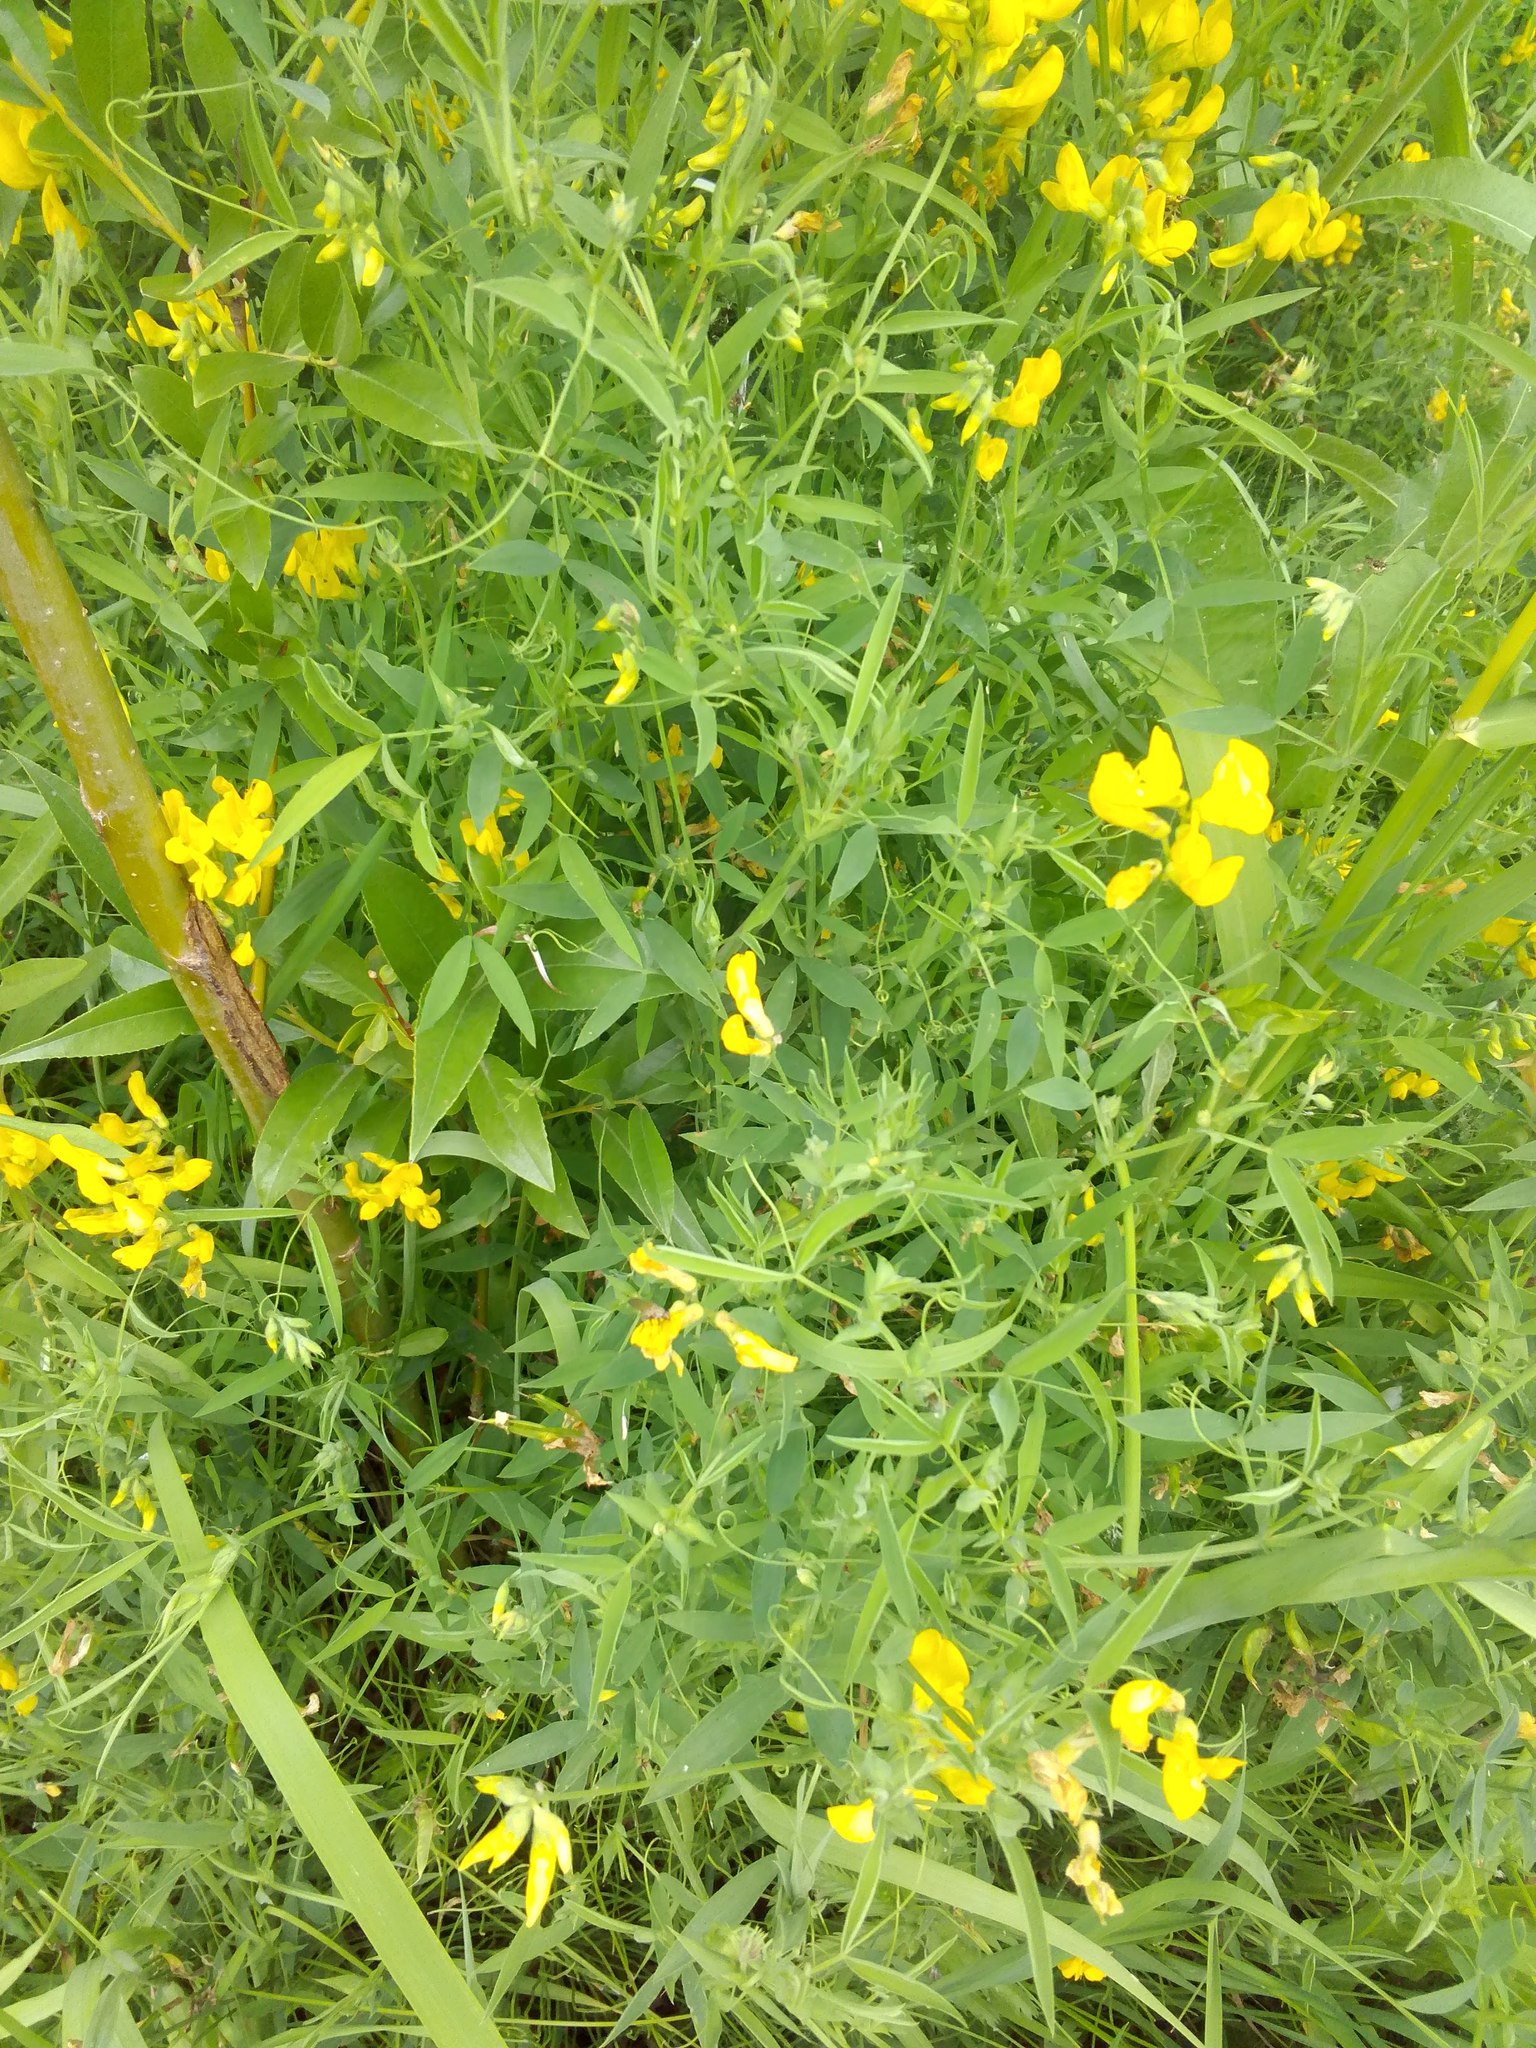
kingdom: Plantae
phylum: Tracheophyta
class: Magnoliopsida
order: Fabales
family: Fabaceae
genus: Lathyrus
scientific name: Lathyrus pratensis
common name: Meadow vetchling
